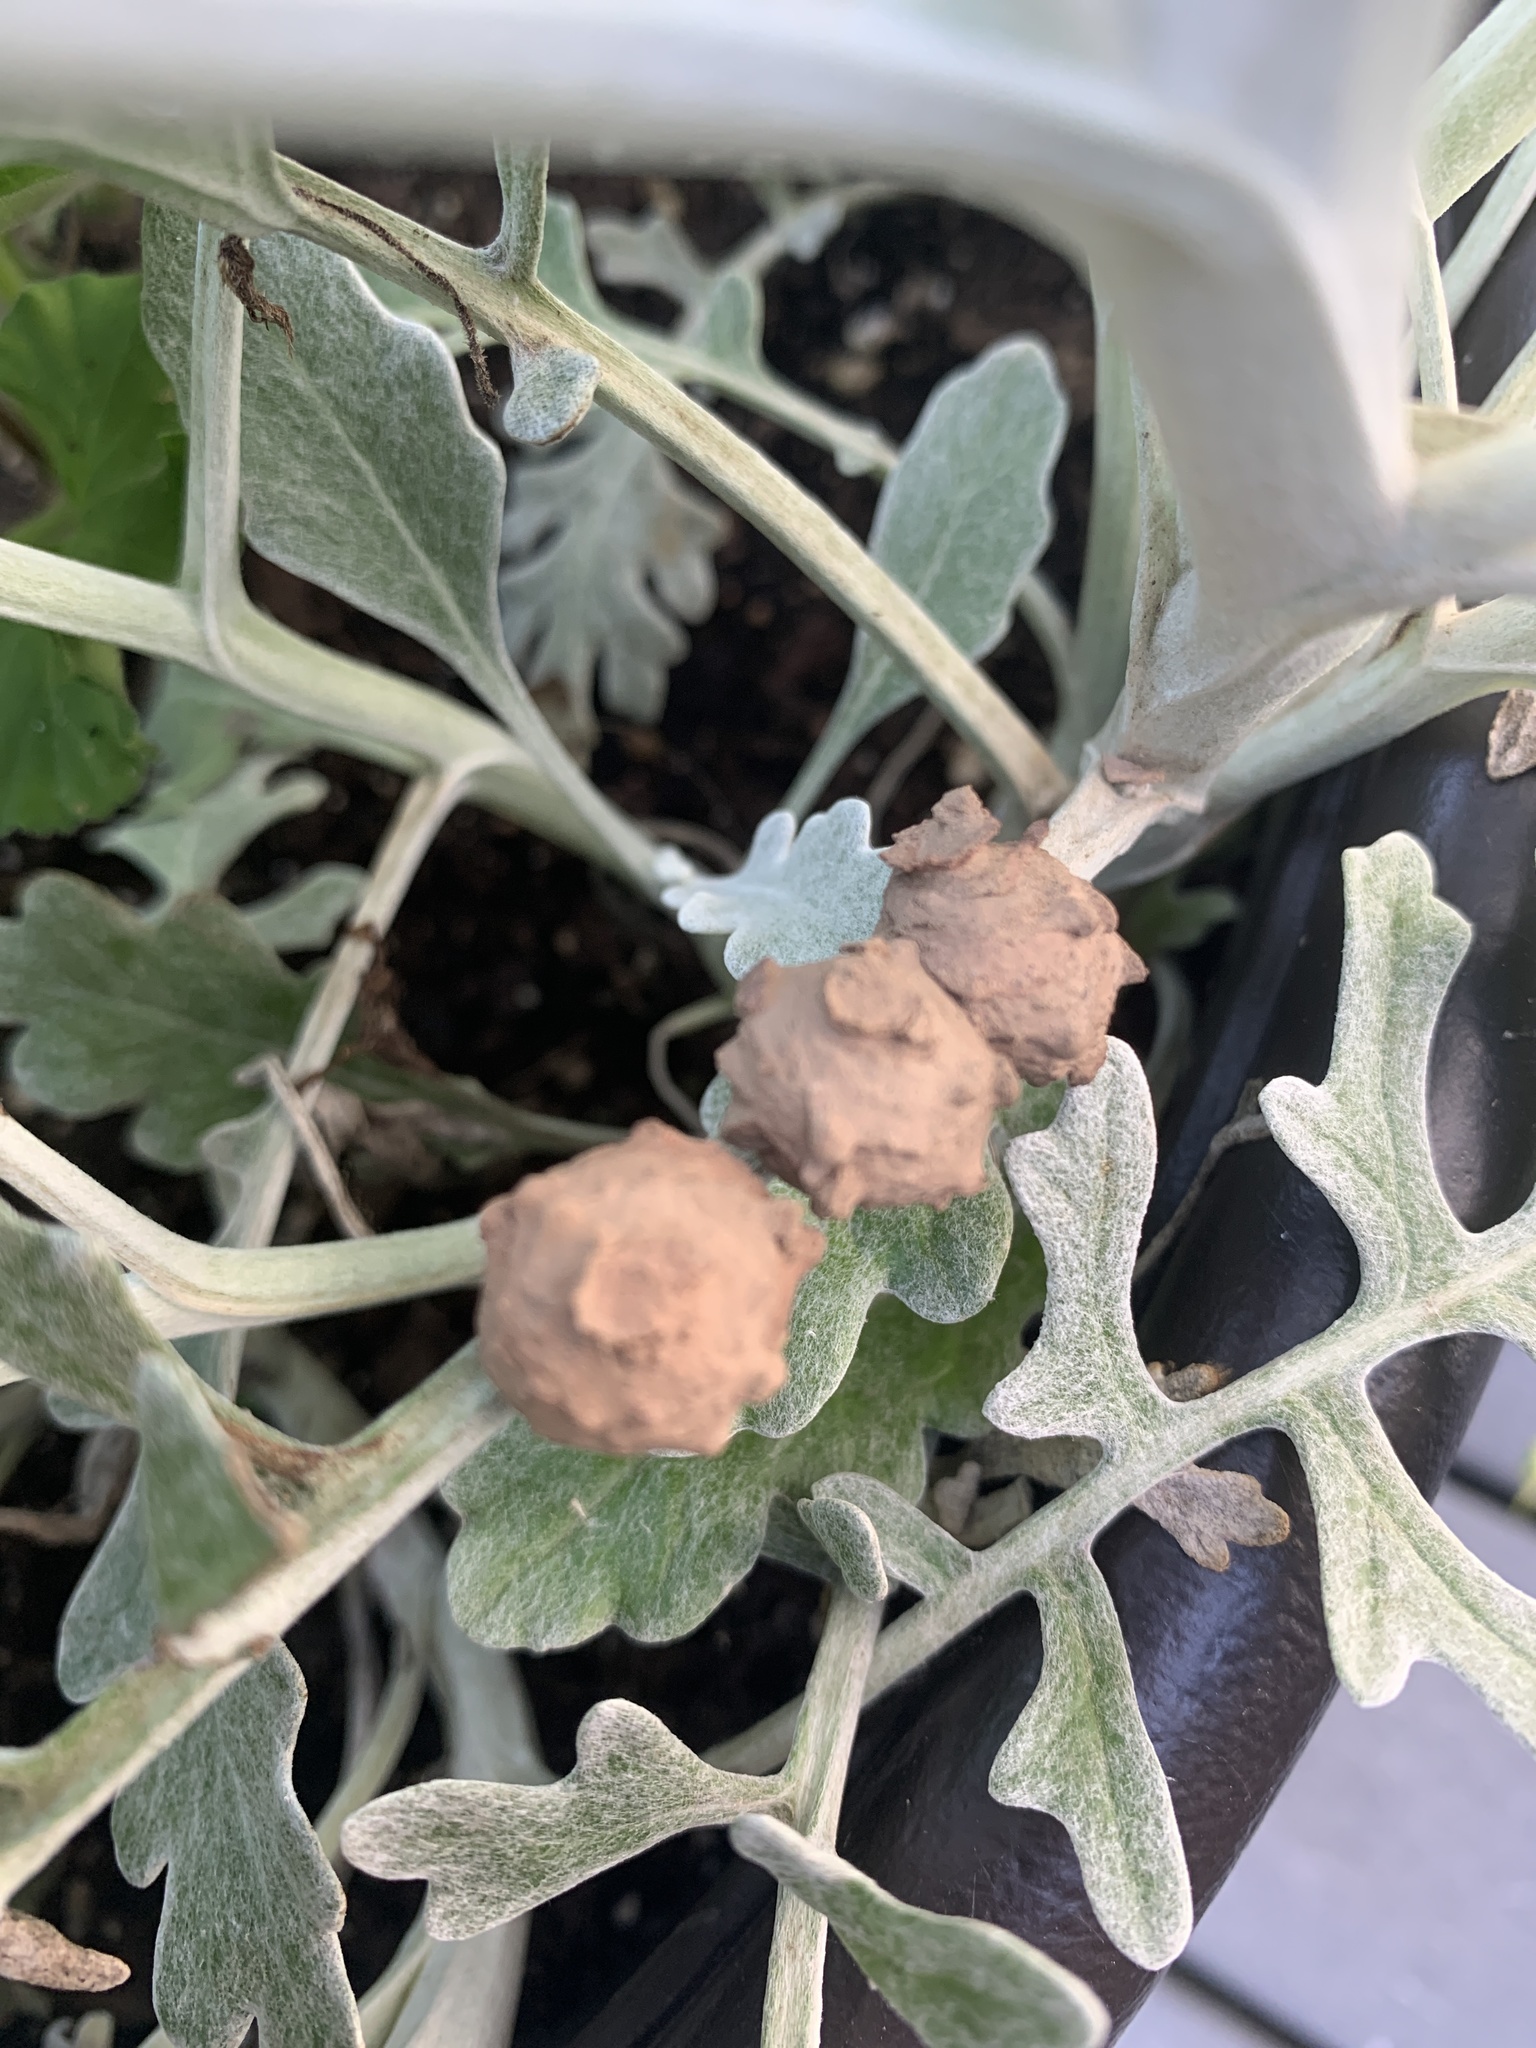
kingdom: Animalia
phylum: Arthropoda
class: Insecta
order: Hymenoptera
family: Vespidae
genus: Eumenes
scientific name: Eumenes
